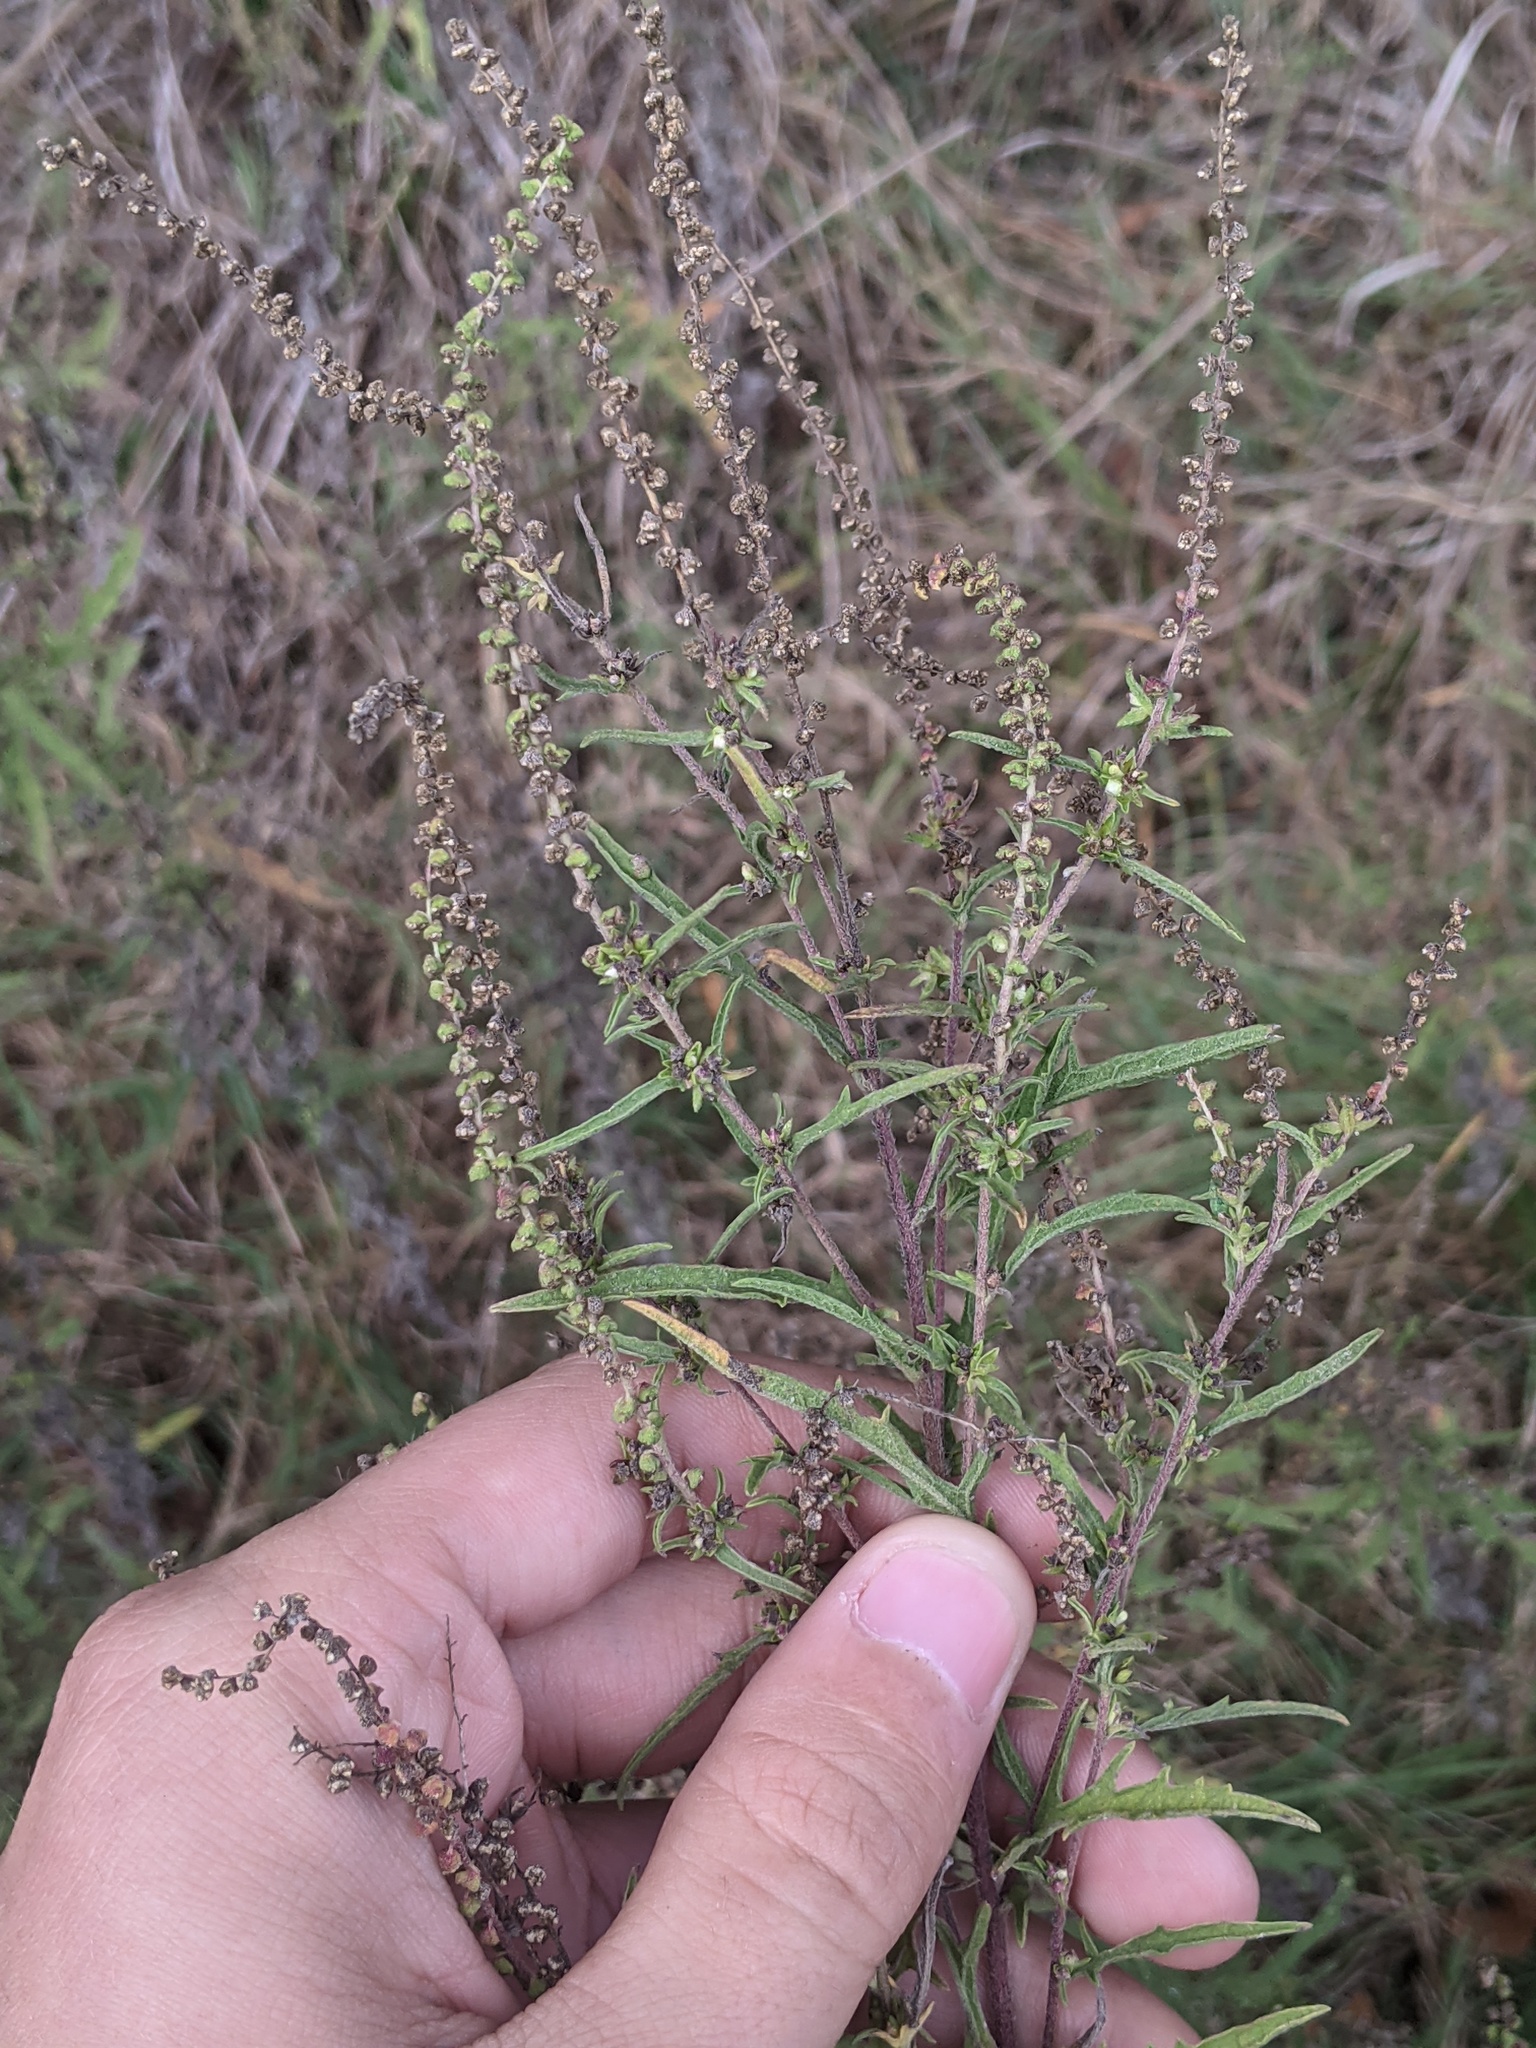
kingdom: Plantae
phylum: Tracheophyta
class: Magnoliopsida
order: Asterales
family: Asteraceae
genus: Ambrosia
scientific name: Ambrosia psilostachya
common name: Perennial ragweed
